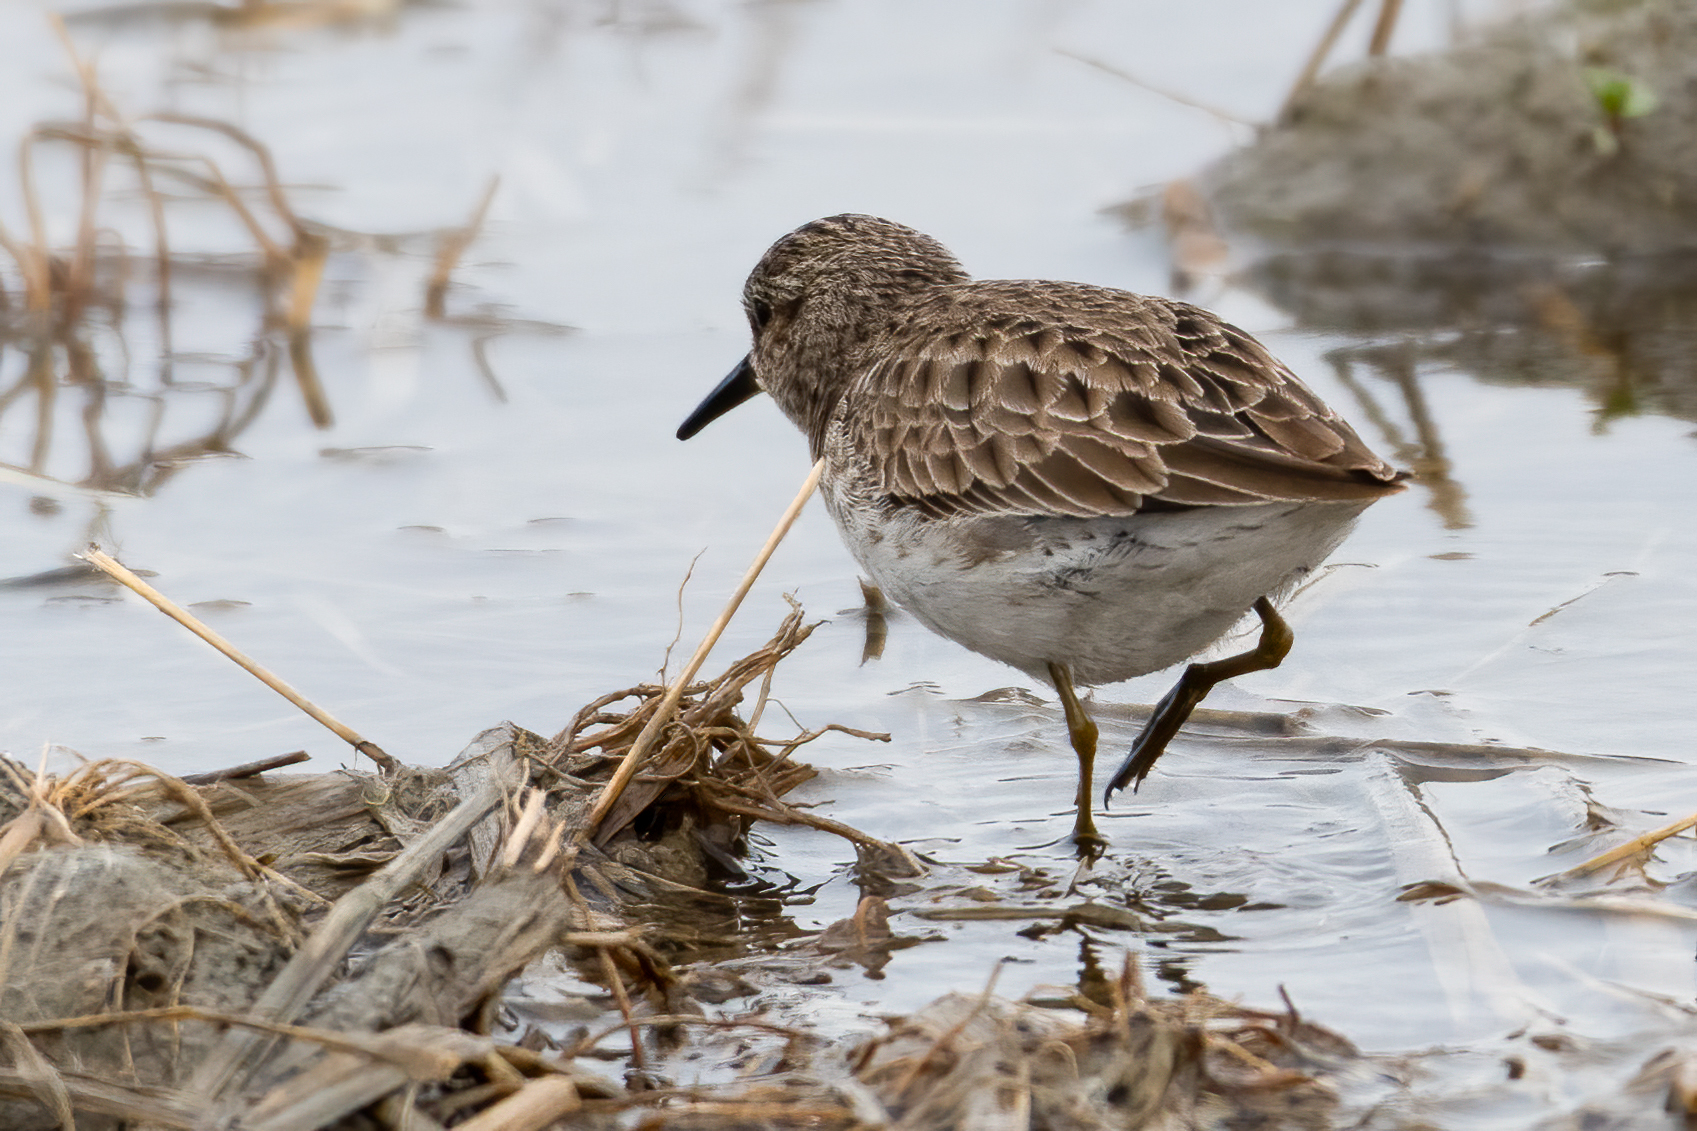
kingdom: Animalia
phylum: Chordata
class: Aves
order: Charadriiformes
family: Scolopacidae
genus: Calidris
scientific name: Calidris minutilla
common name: Least sandpiper
